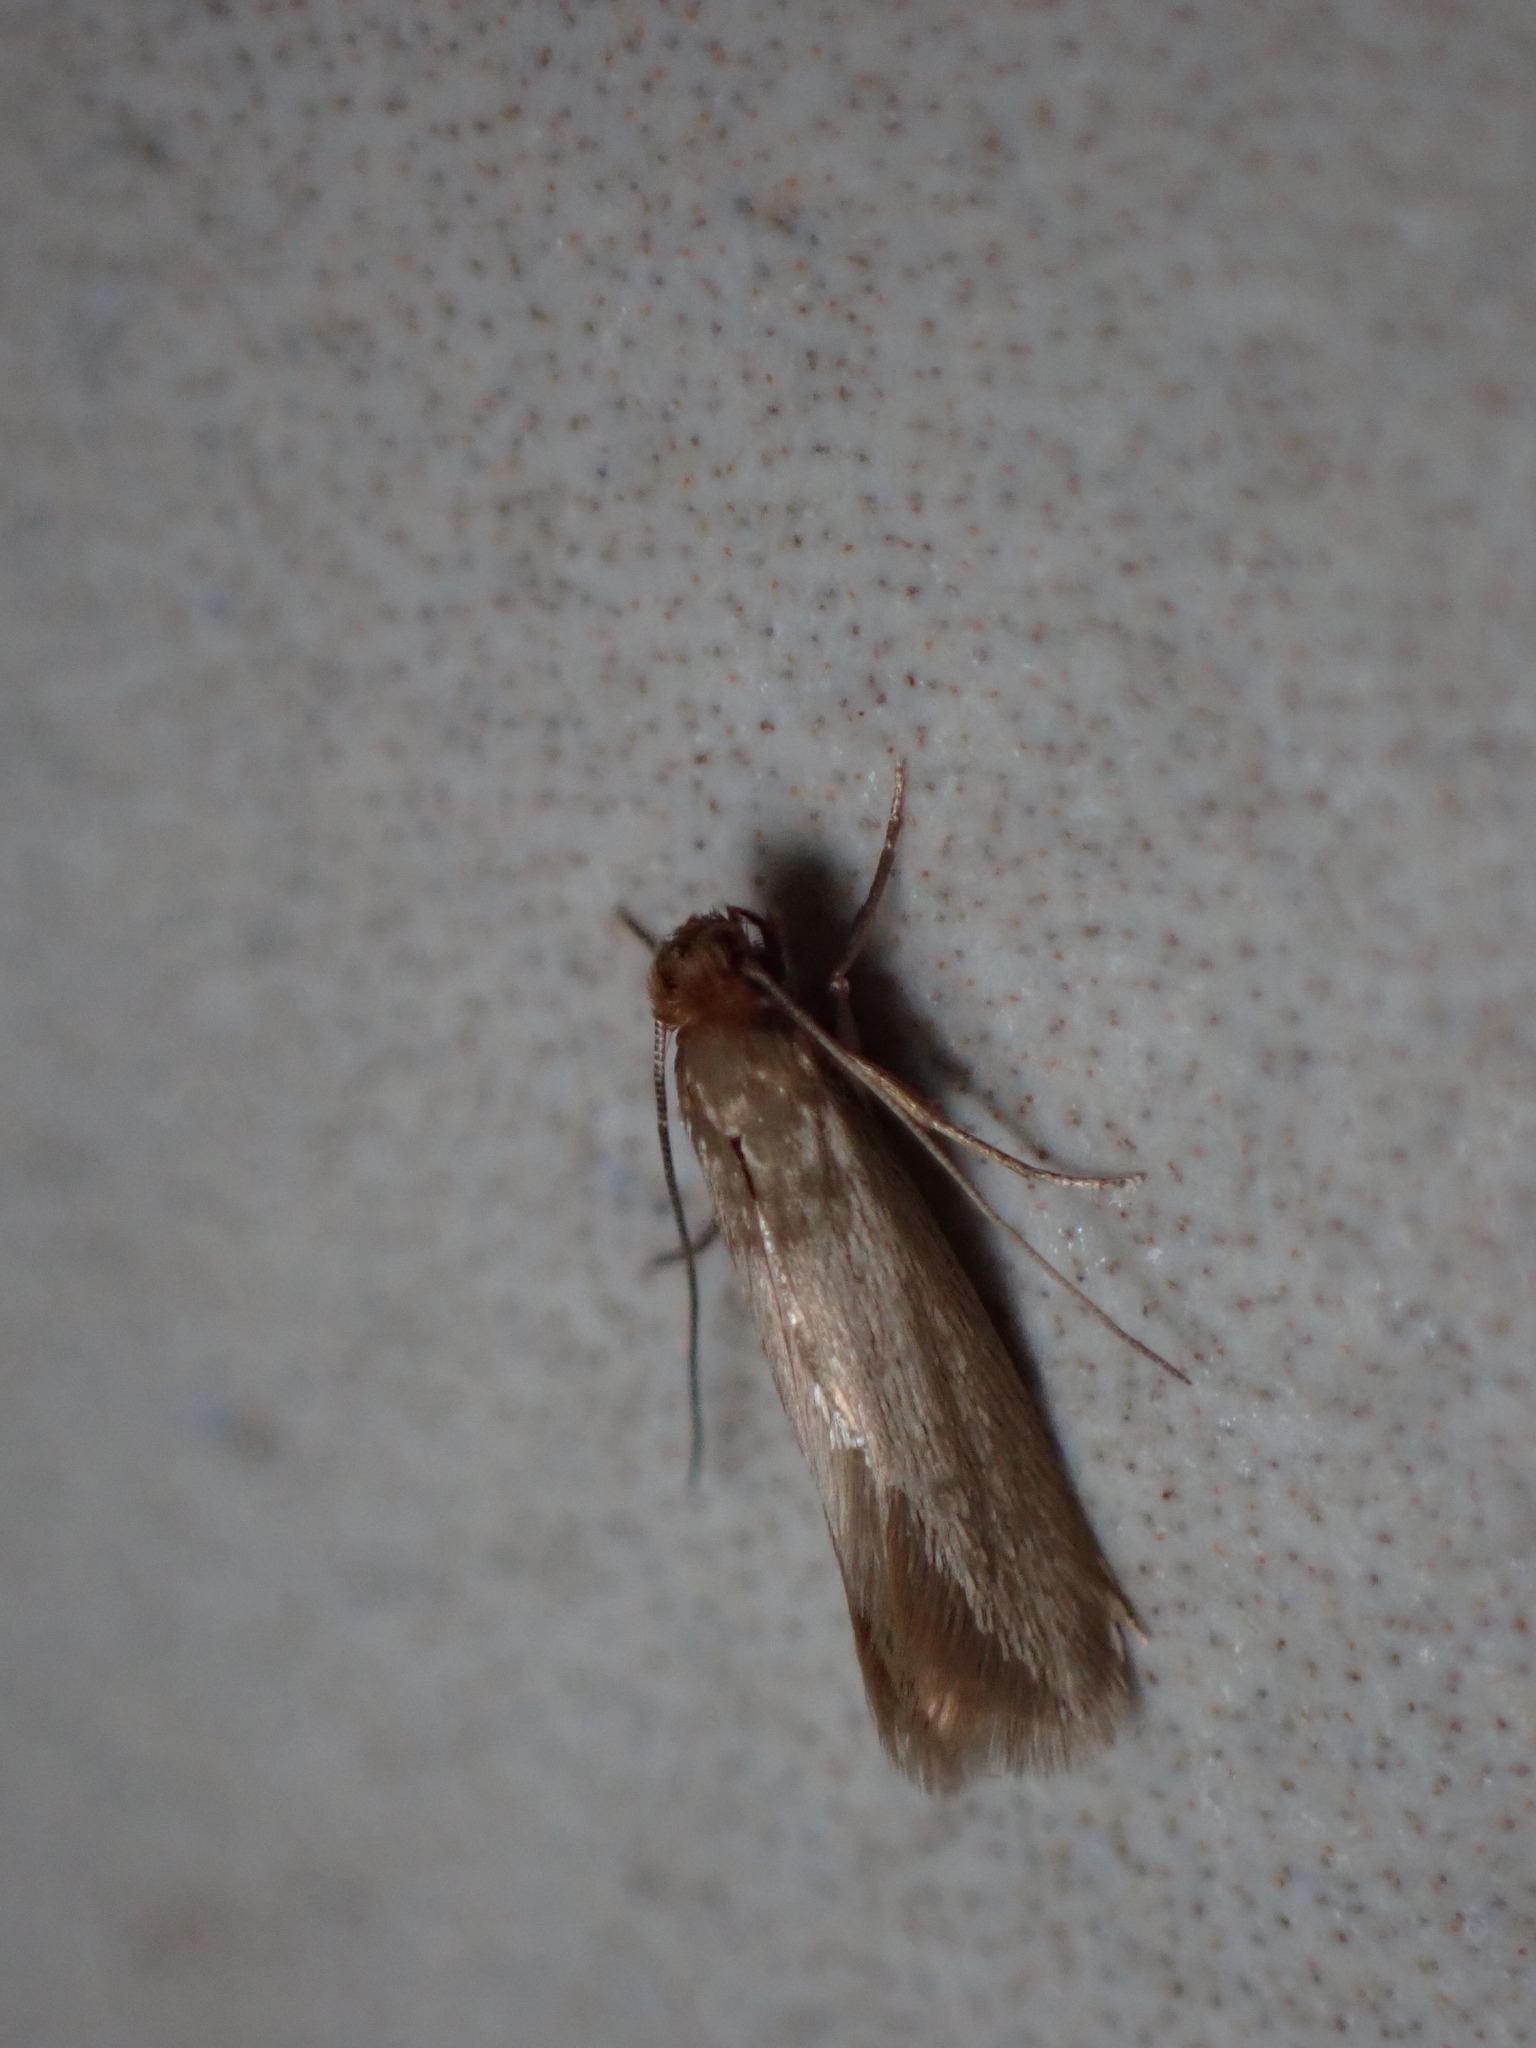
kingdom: Animalia
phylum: Arthropoda
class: Insecta
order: Lepidoptera
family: Tineidae
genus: Tineola
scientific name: Tineola bisselliella
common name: Webbing clothes moth
